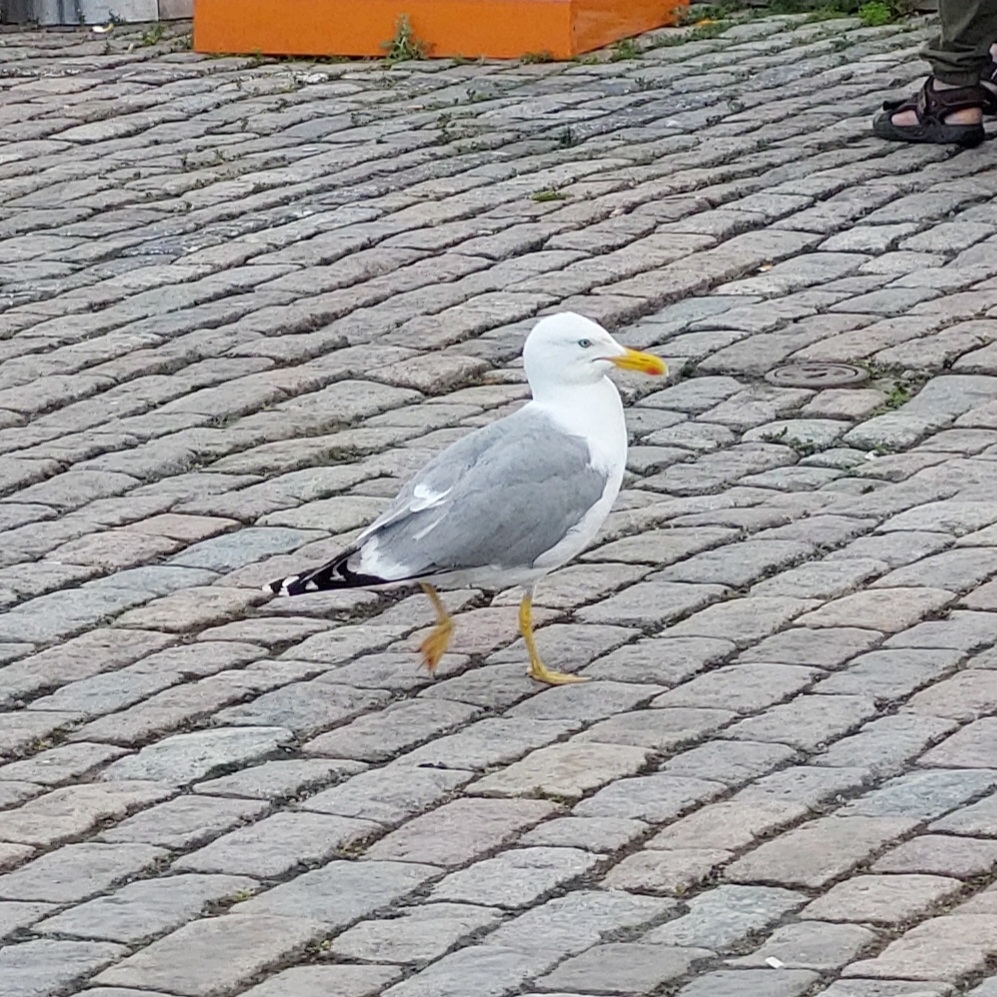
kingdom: Animalia
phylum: Chordata
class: Aves
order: Charadriiformes
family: Laridae
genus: Larus
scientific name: Larus argentatus
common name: Herring gull
